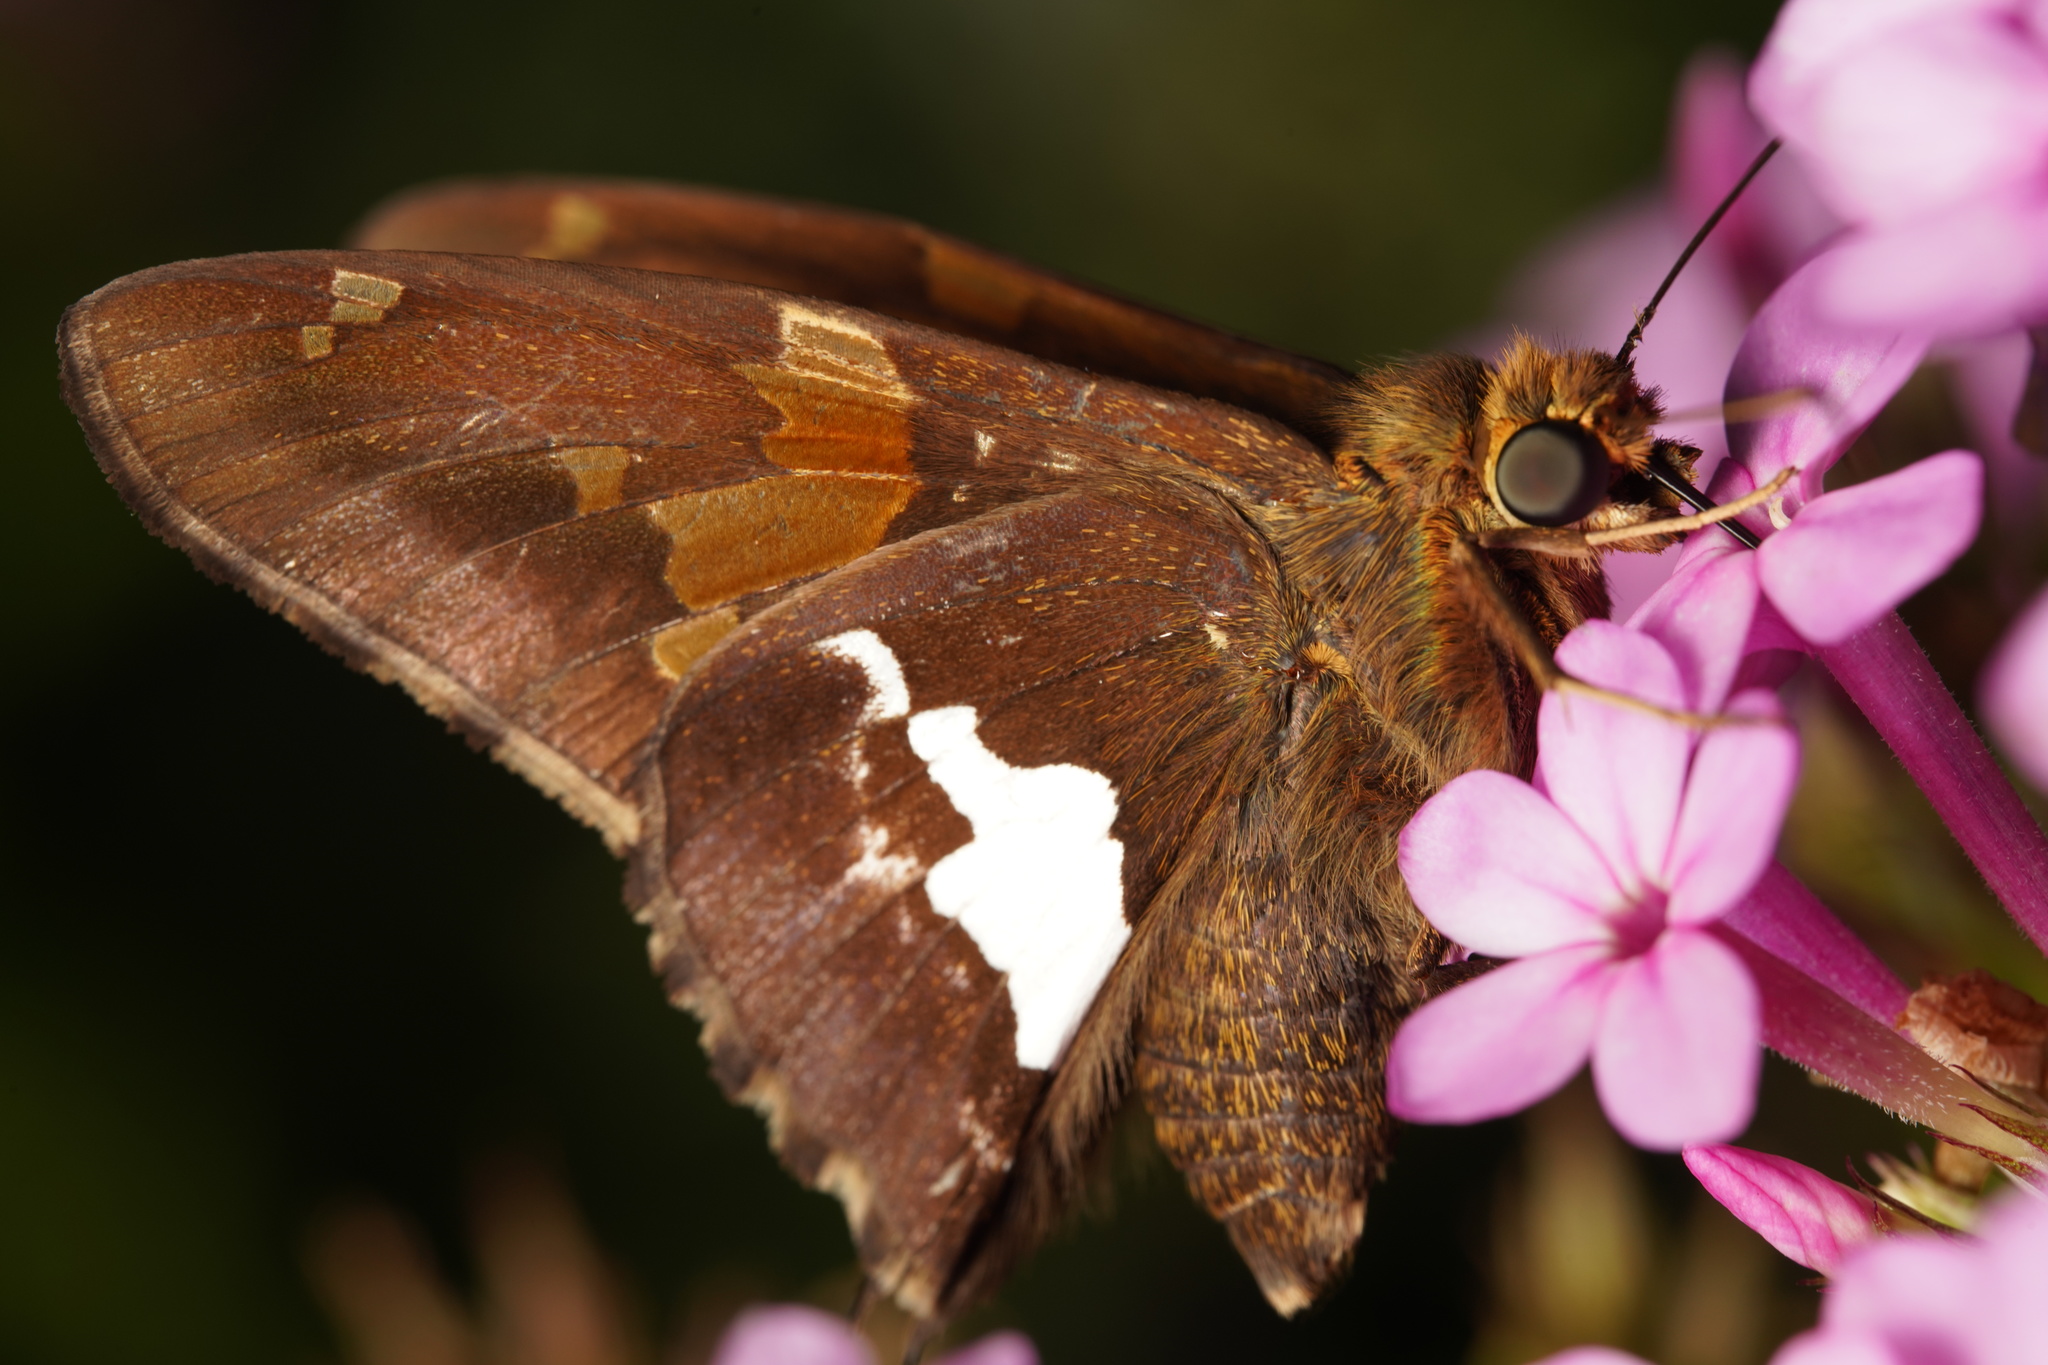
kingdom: Animalia
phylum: Arthropoda
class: Insecta
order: Lepidoptera
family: Hesperiidae
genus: Epargyreus
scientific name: Epargyreus clarus
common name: Silver-spotted skipper
